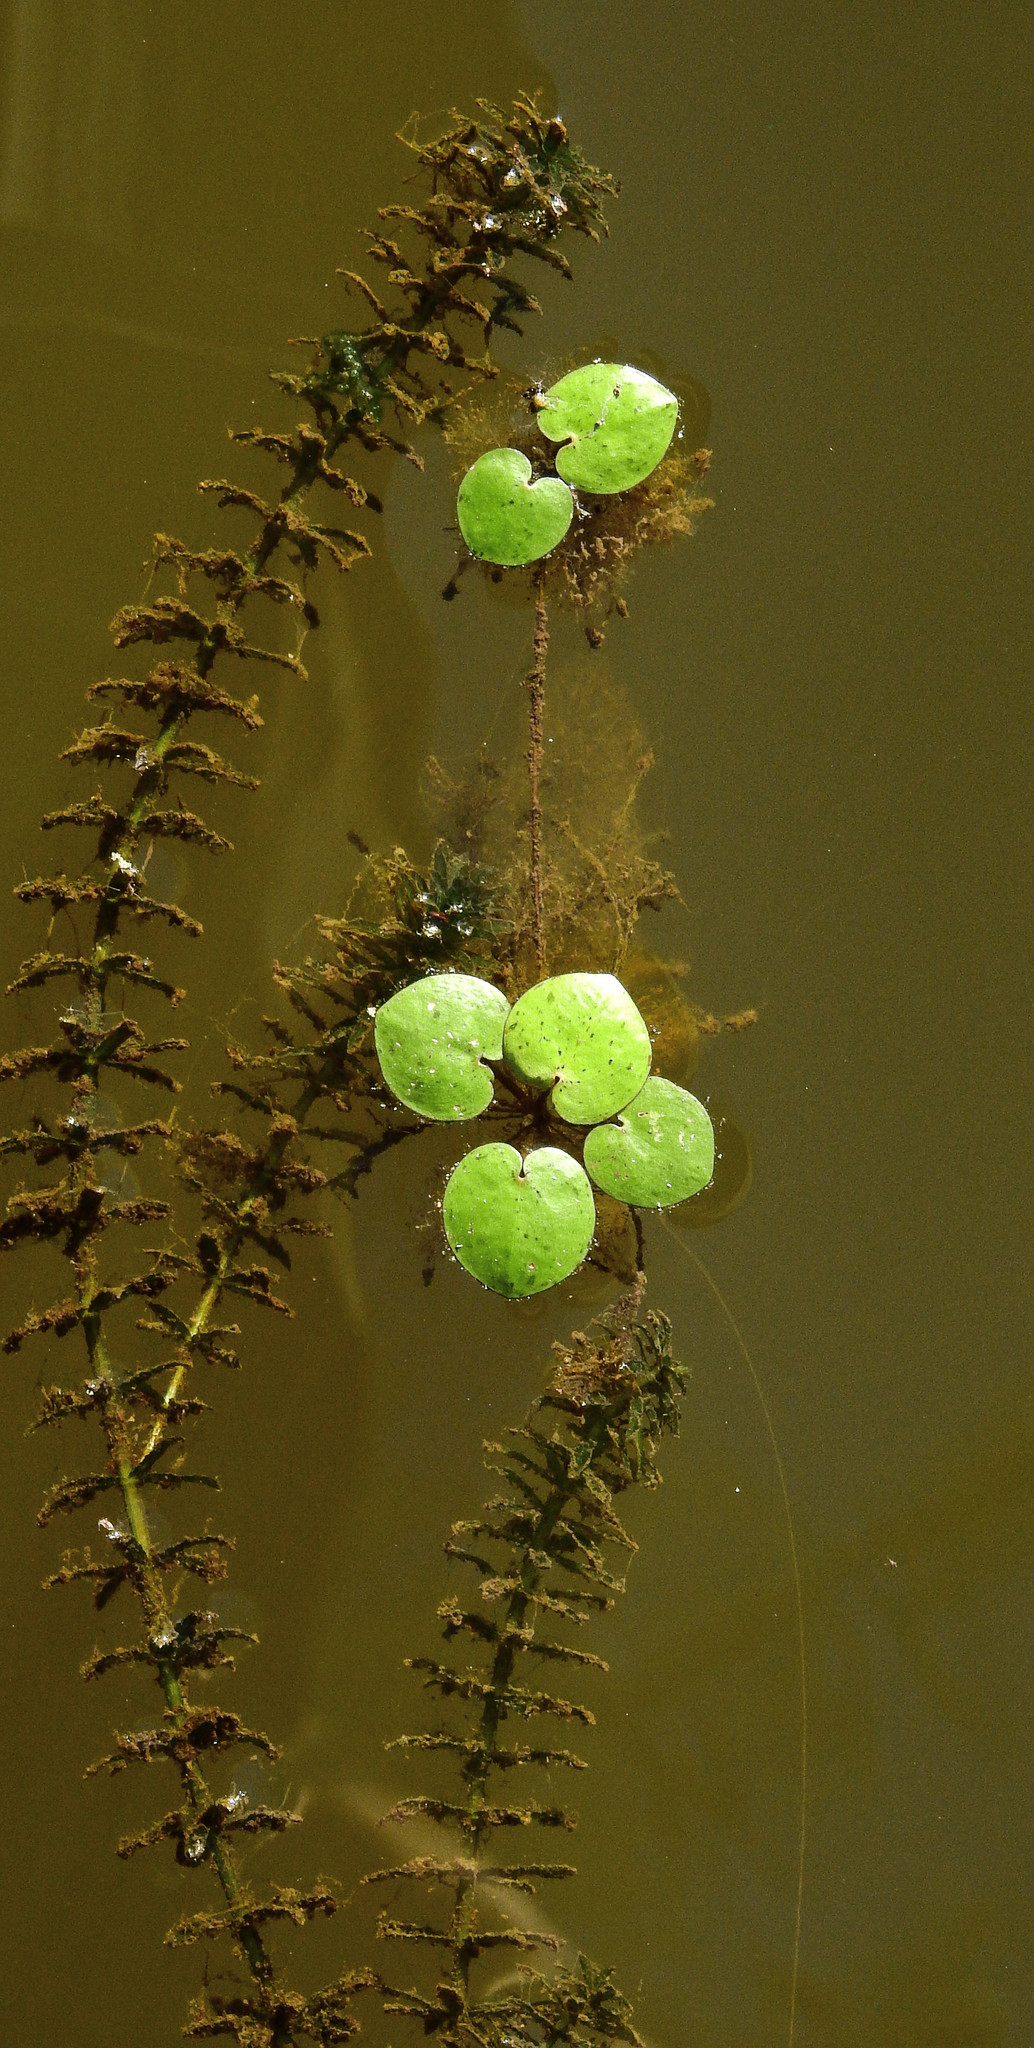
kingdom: Plantae
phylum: Tracheophyta
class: Liliopsida
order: Alismatales
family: Araceae
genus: Spirodela
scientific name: Spirodela polyrhiza
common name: Great duckweed
